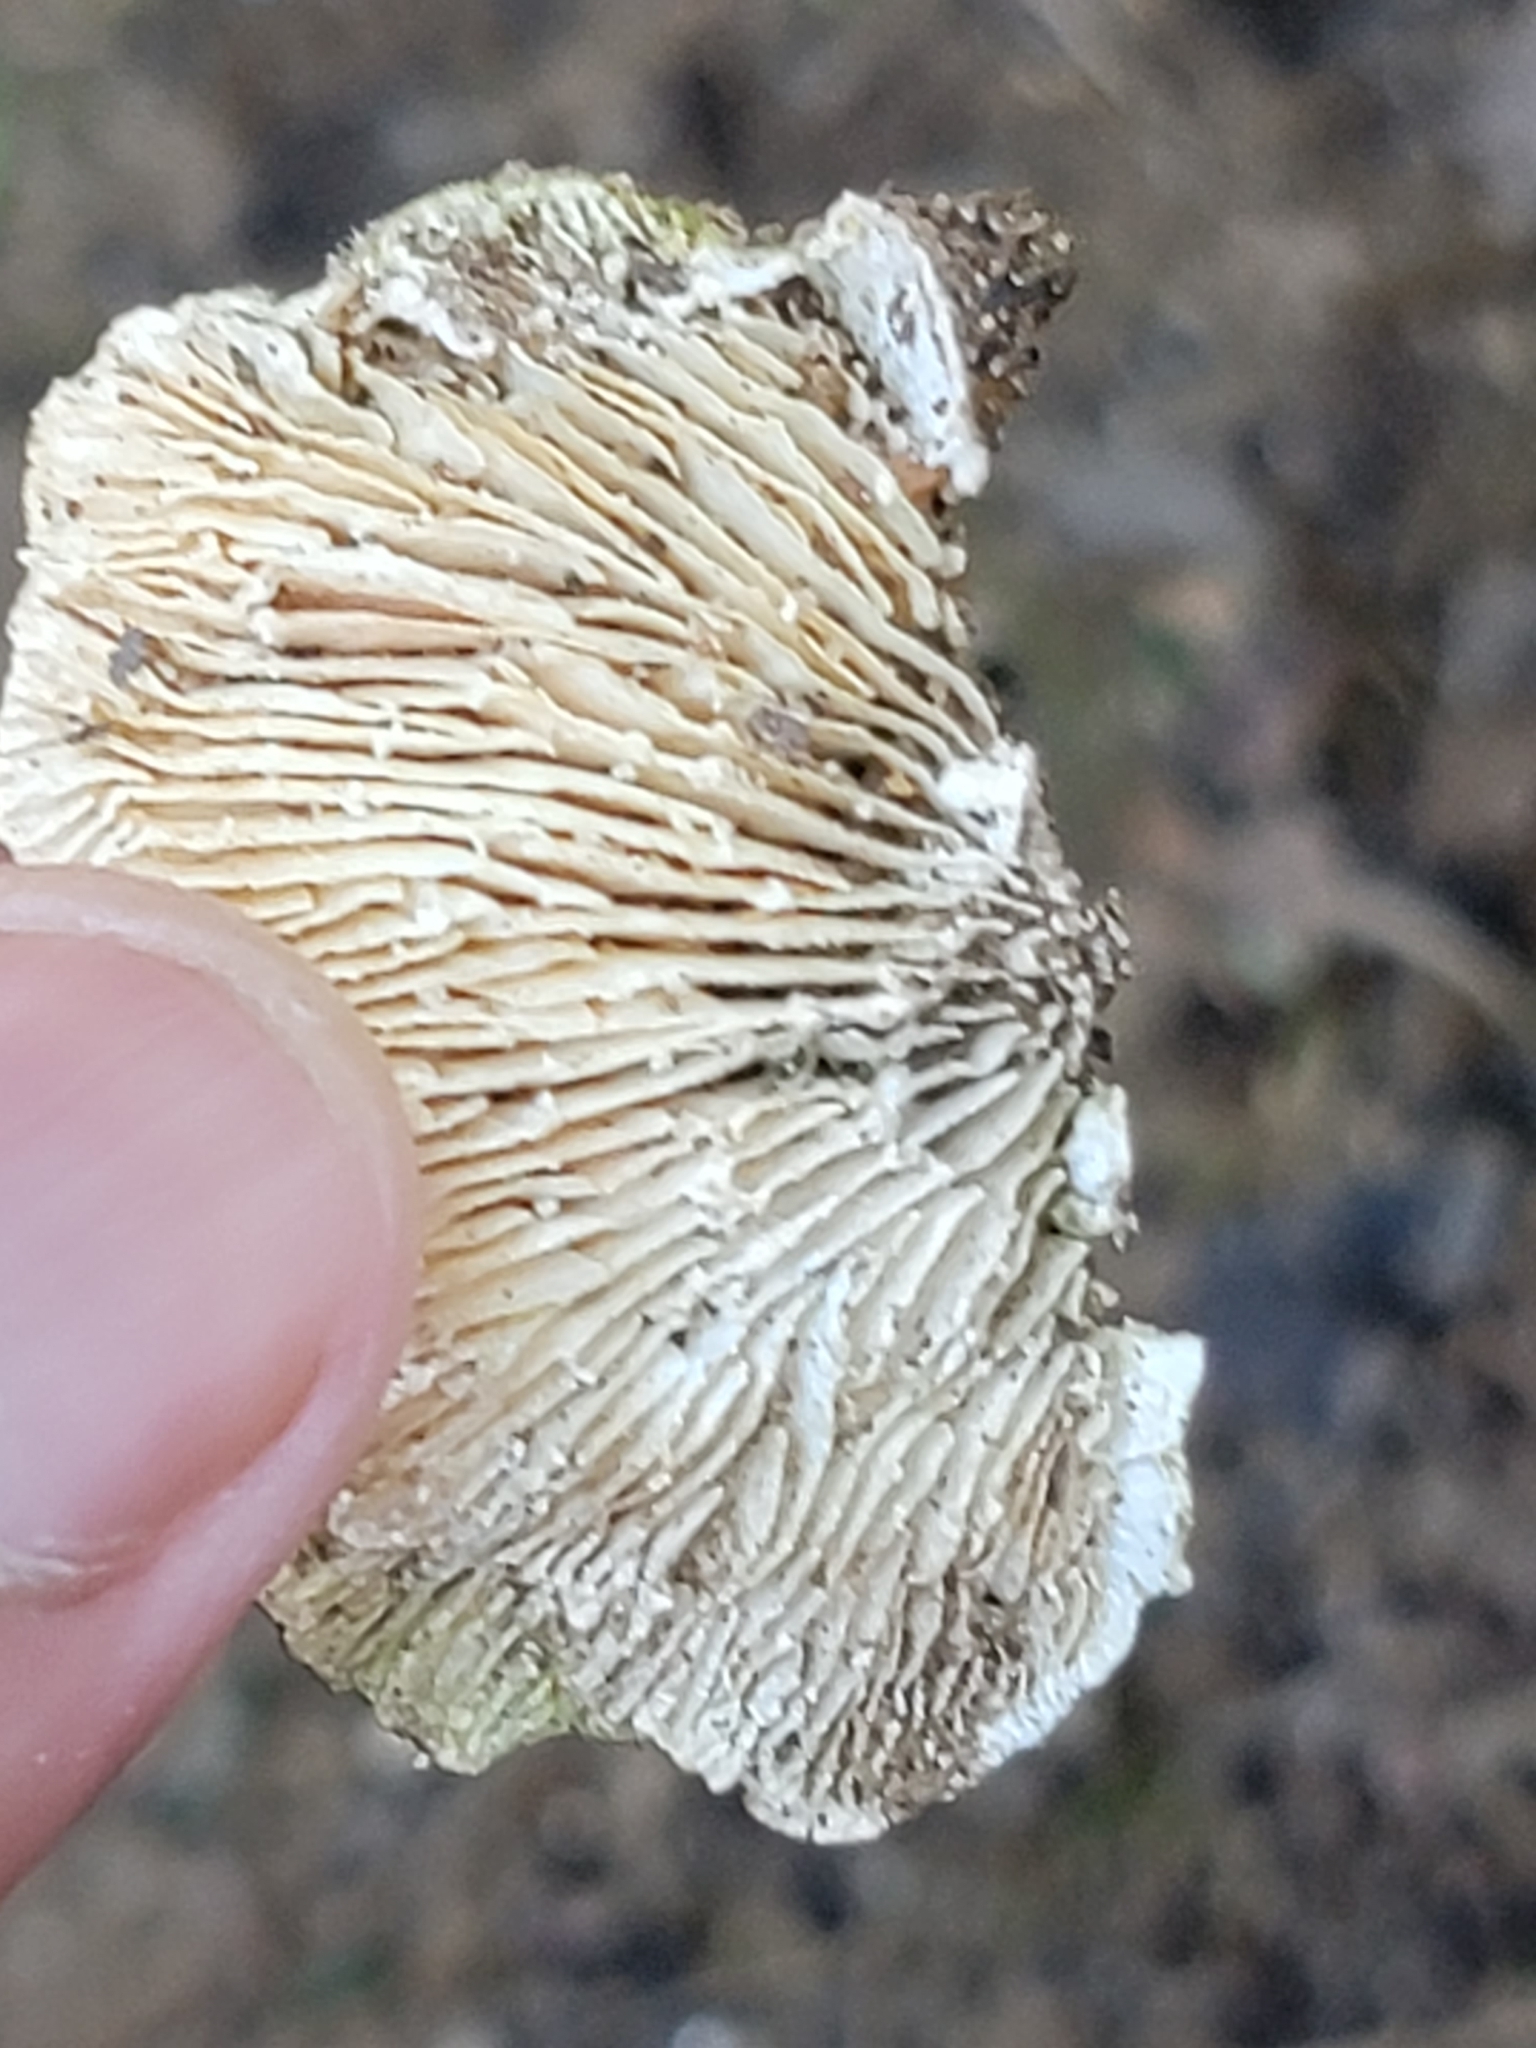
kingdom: Fungi
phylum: Basidiomycota
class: Agaricomycetes
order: Polyporales
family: Polyporaceae
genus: Lenzites
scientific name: Lenzites betulinus
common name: Birch mazegill
